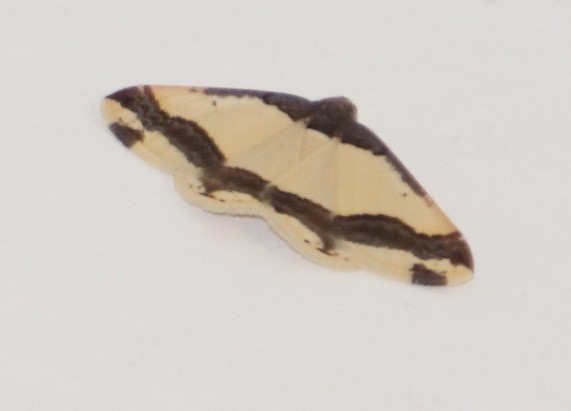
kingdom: Animalia
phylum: Arthropoda
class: Insecta
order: Lepidoptera
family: Geometridae
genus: Ligdia
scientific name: Ligdia batesii
